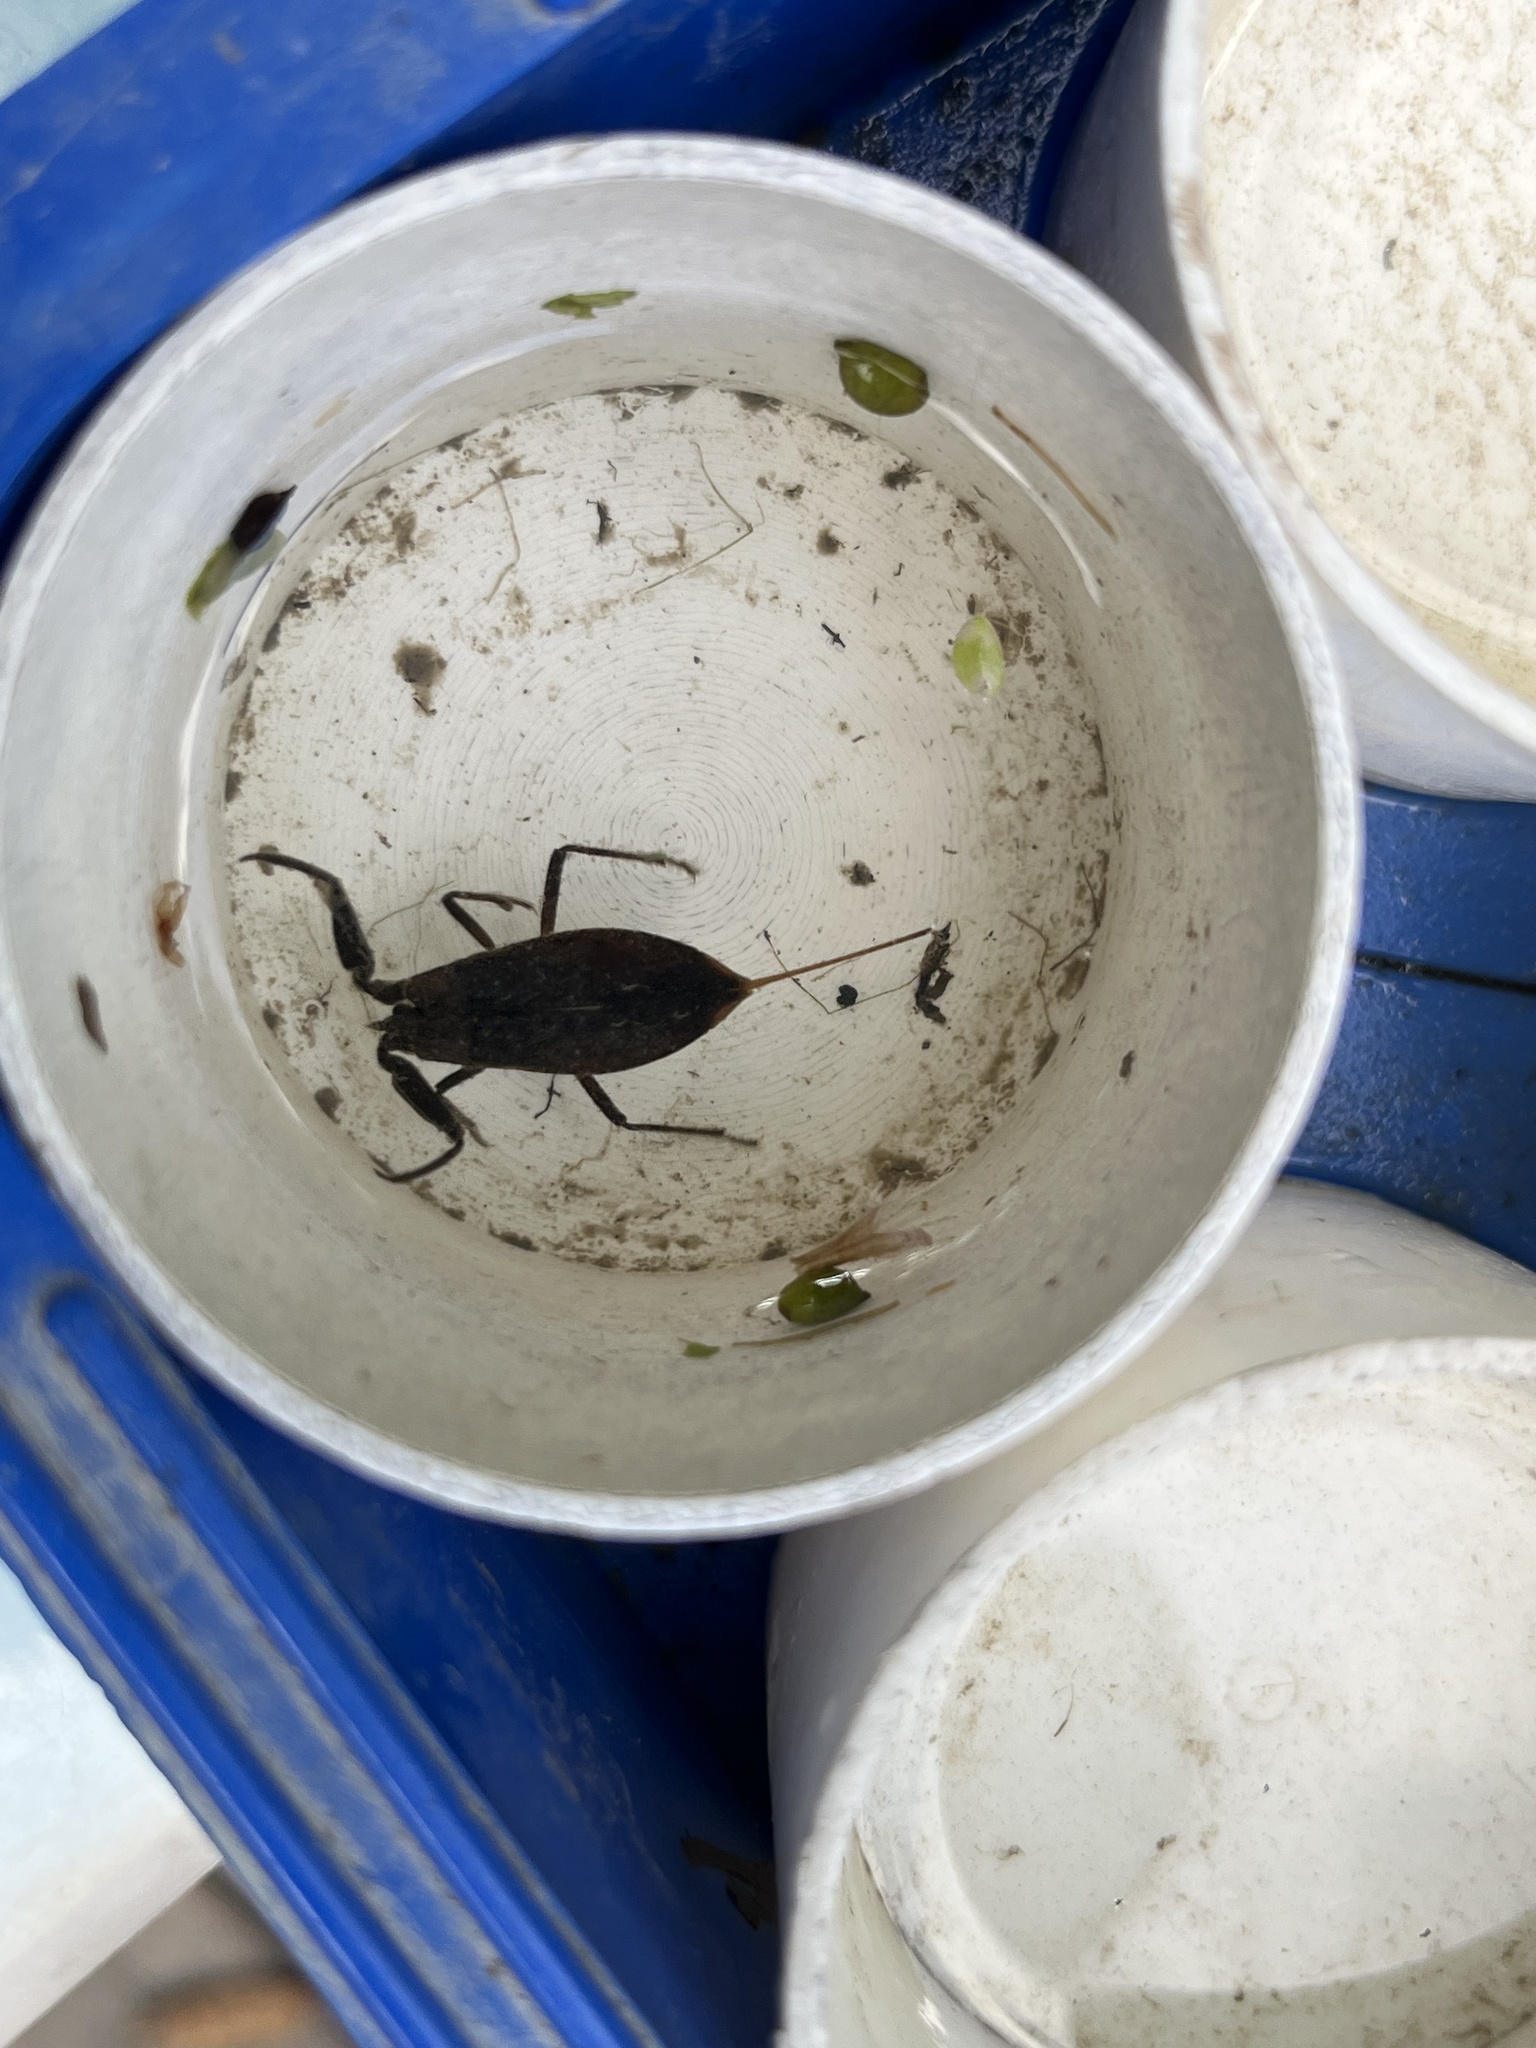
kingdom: Animalia
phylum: Arthropoda
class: Insecta
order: Hemiptera
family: Nepidae
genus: Nepa
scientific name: Nepa cinerea
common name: Water scorpion
